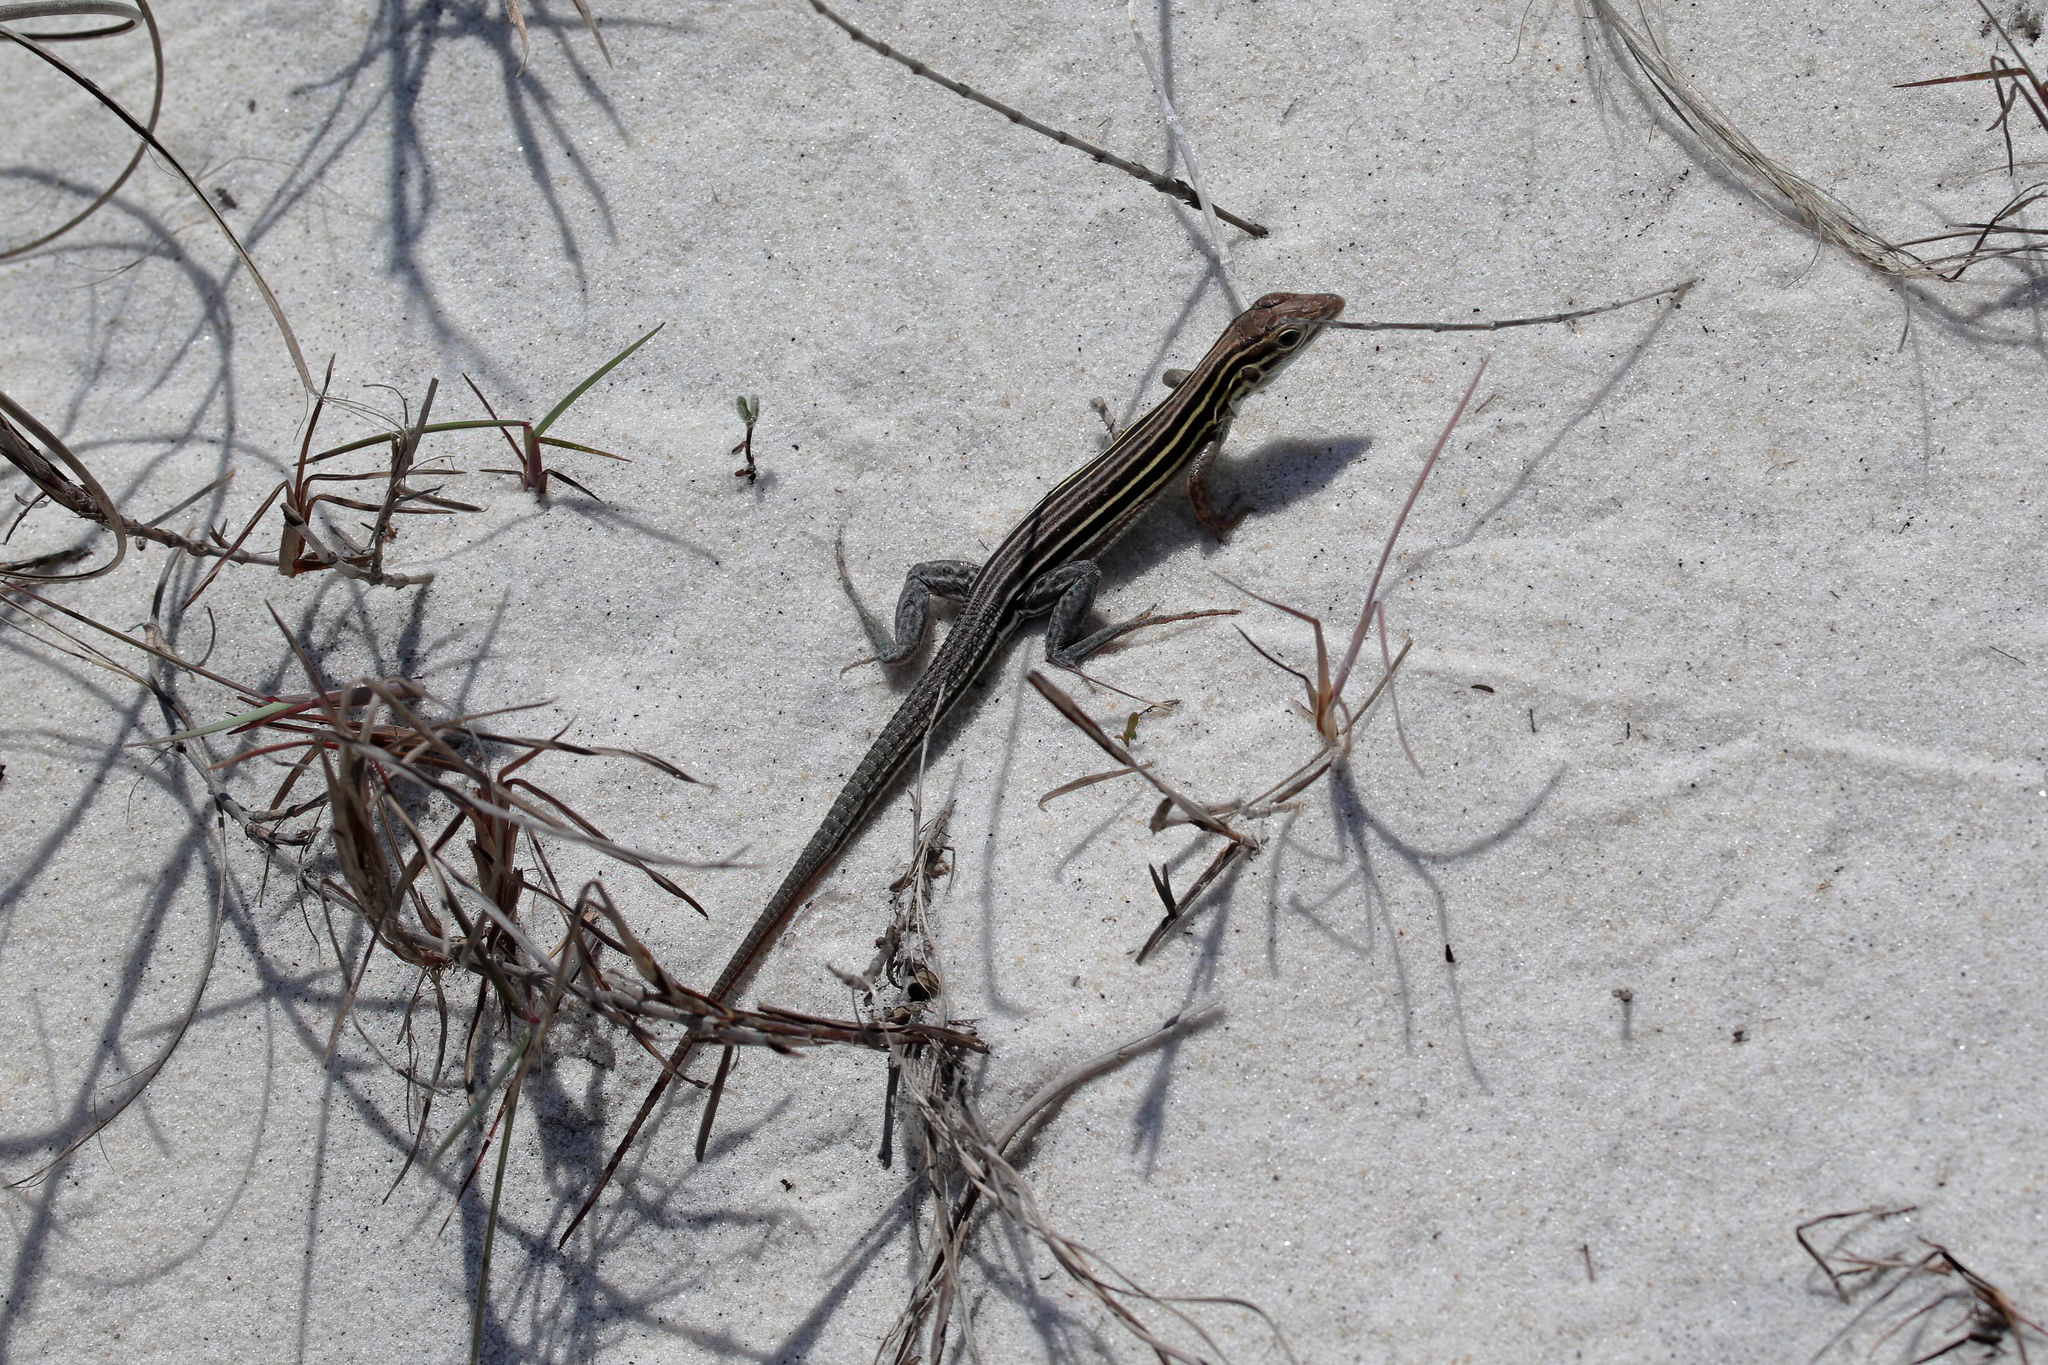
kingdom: Animalia
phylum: Chordata
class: Squamata
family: Teiidae
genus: Aspidoscelis
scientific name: Aspidoscelis sexlineatus
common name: Six-lined racerunner
